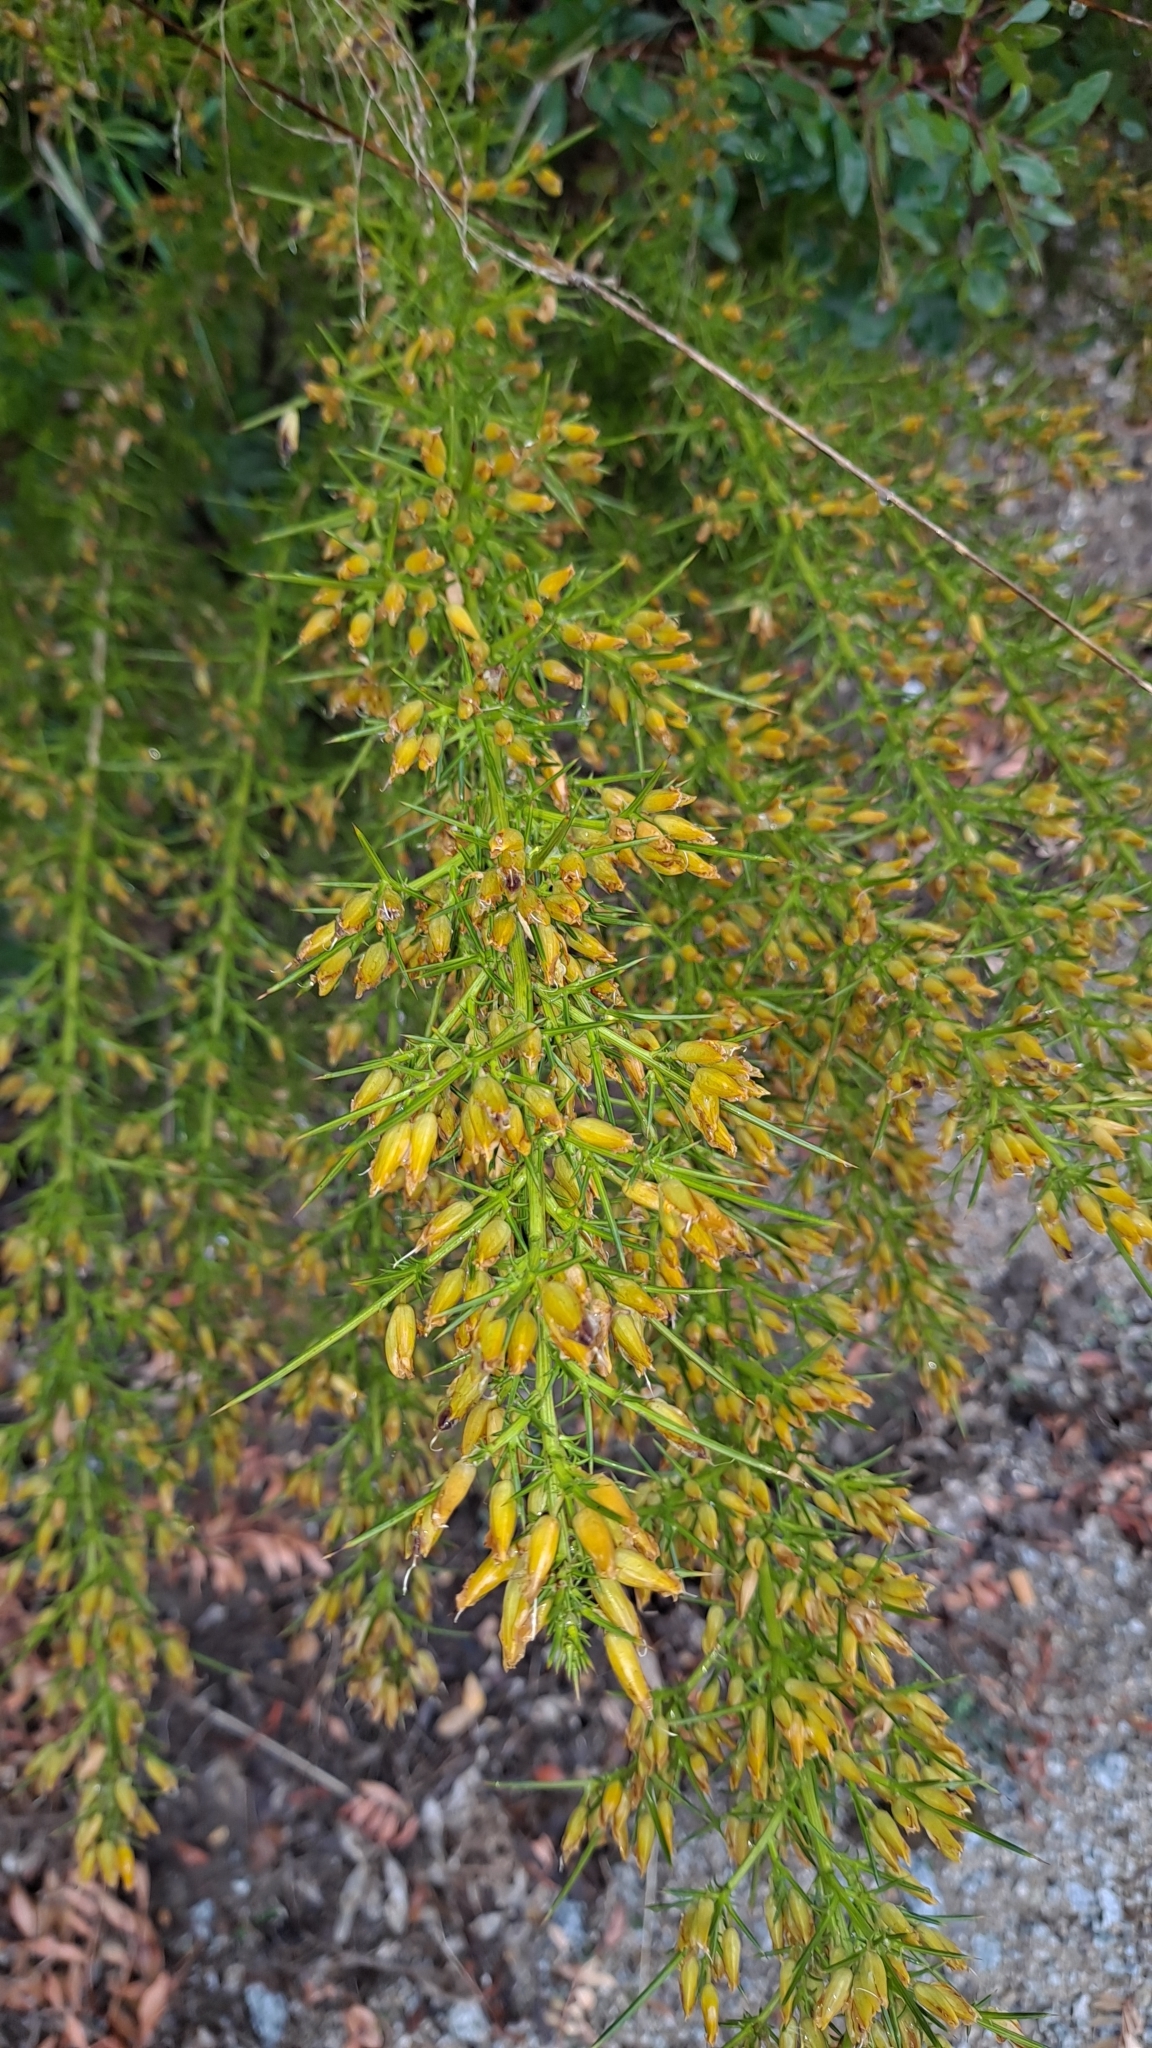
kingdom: Plantae
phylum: Tracheophyta
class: Magnoliopsida
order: Fabales
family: Fabaceae
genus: Ulex
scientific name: Ulex parviflorus
